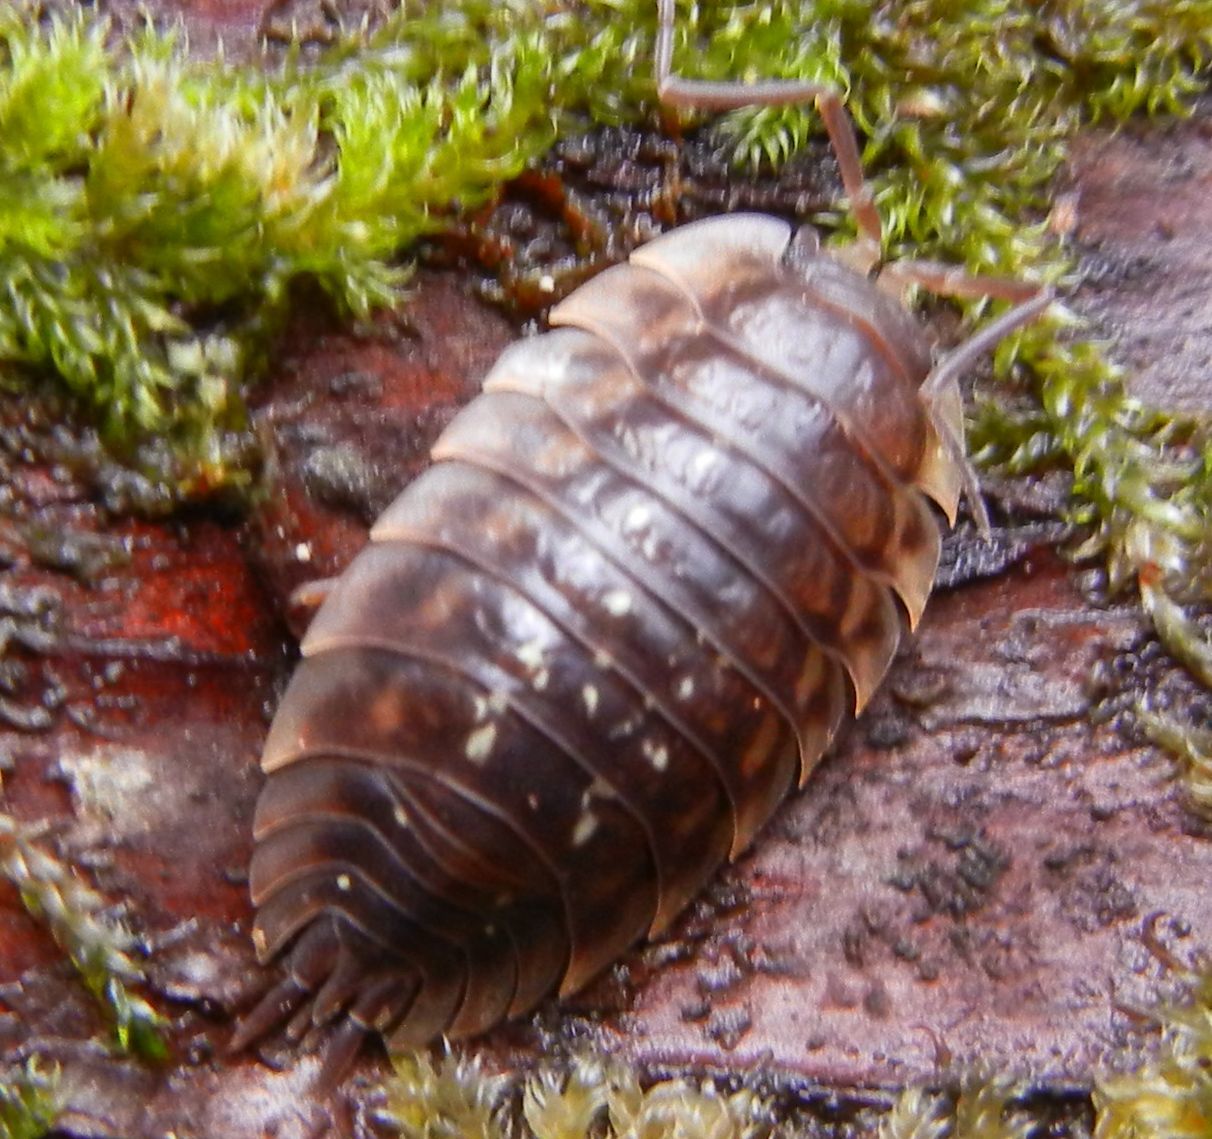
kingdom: Animalia
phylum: Arthropoda
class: Malacostraca
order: Isopoda
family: Oniscidae
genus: Oniscus
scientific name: Oniscus asellus
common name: Common shiny woodlouse
